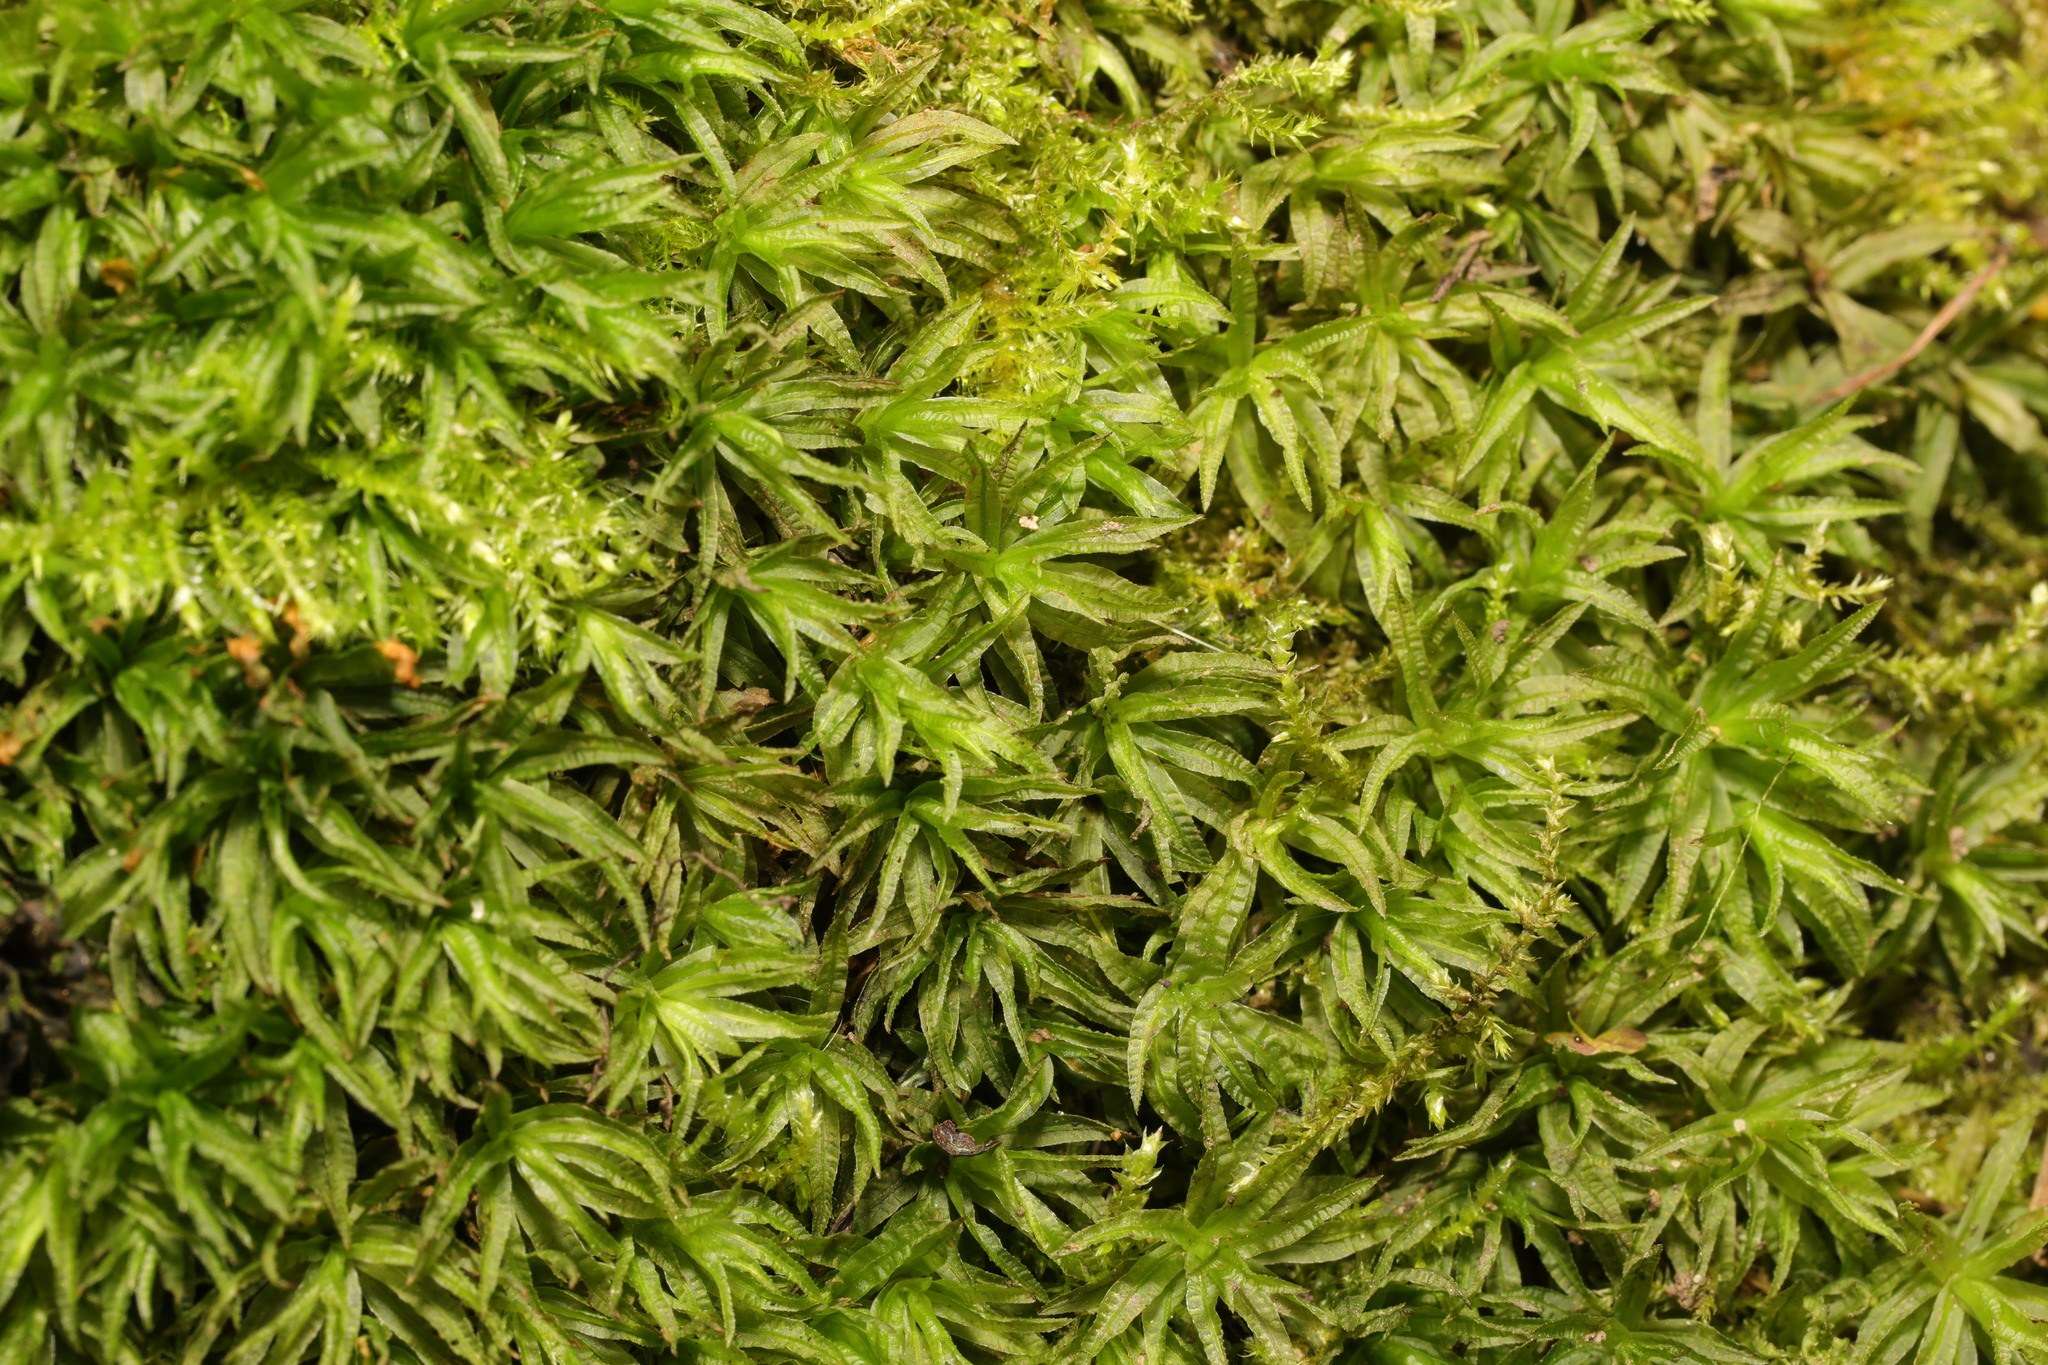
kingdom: Plantae
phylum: Bryophyta
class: Polytrichopsida
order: Polytrichales
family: Polytrichaceae
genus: Atrichum
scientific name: Atrichum undulatum
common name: Common smoothcap
